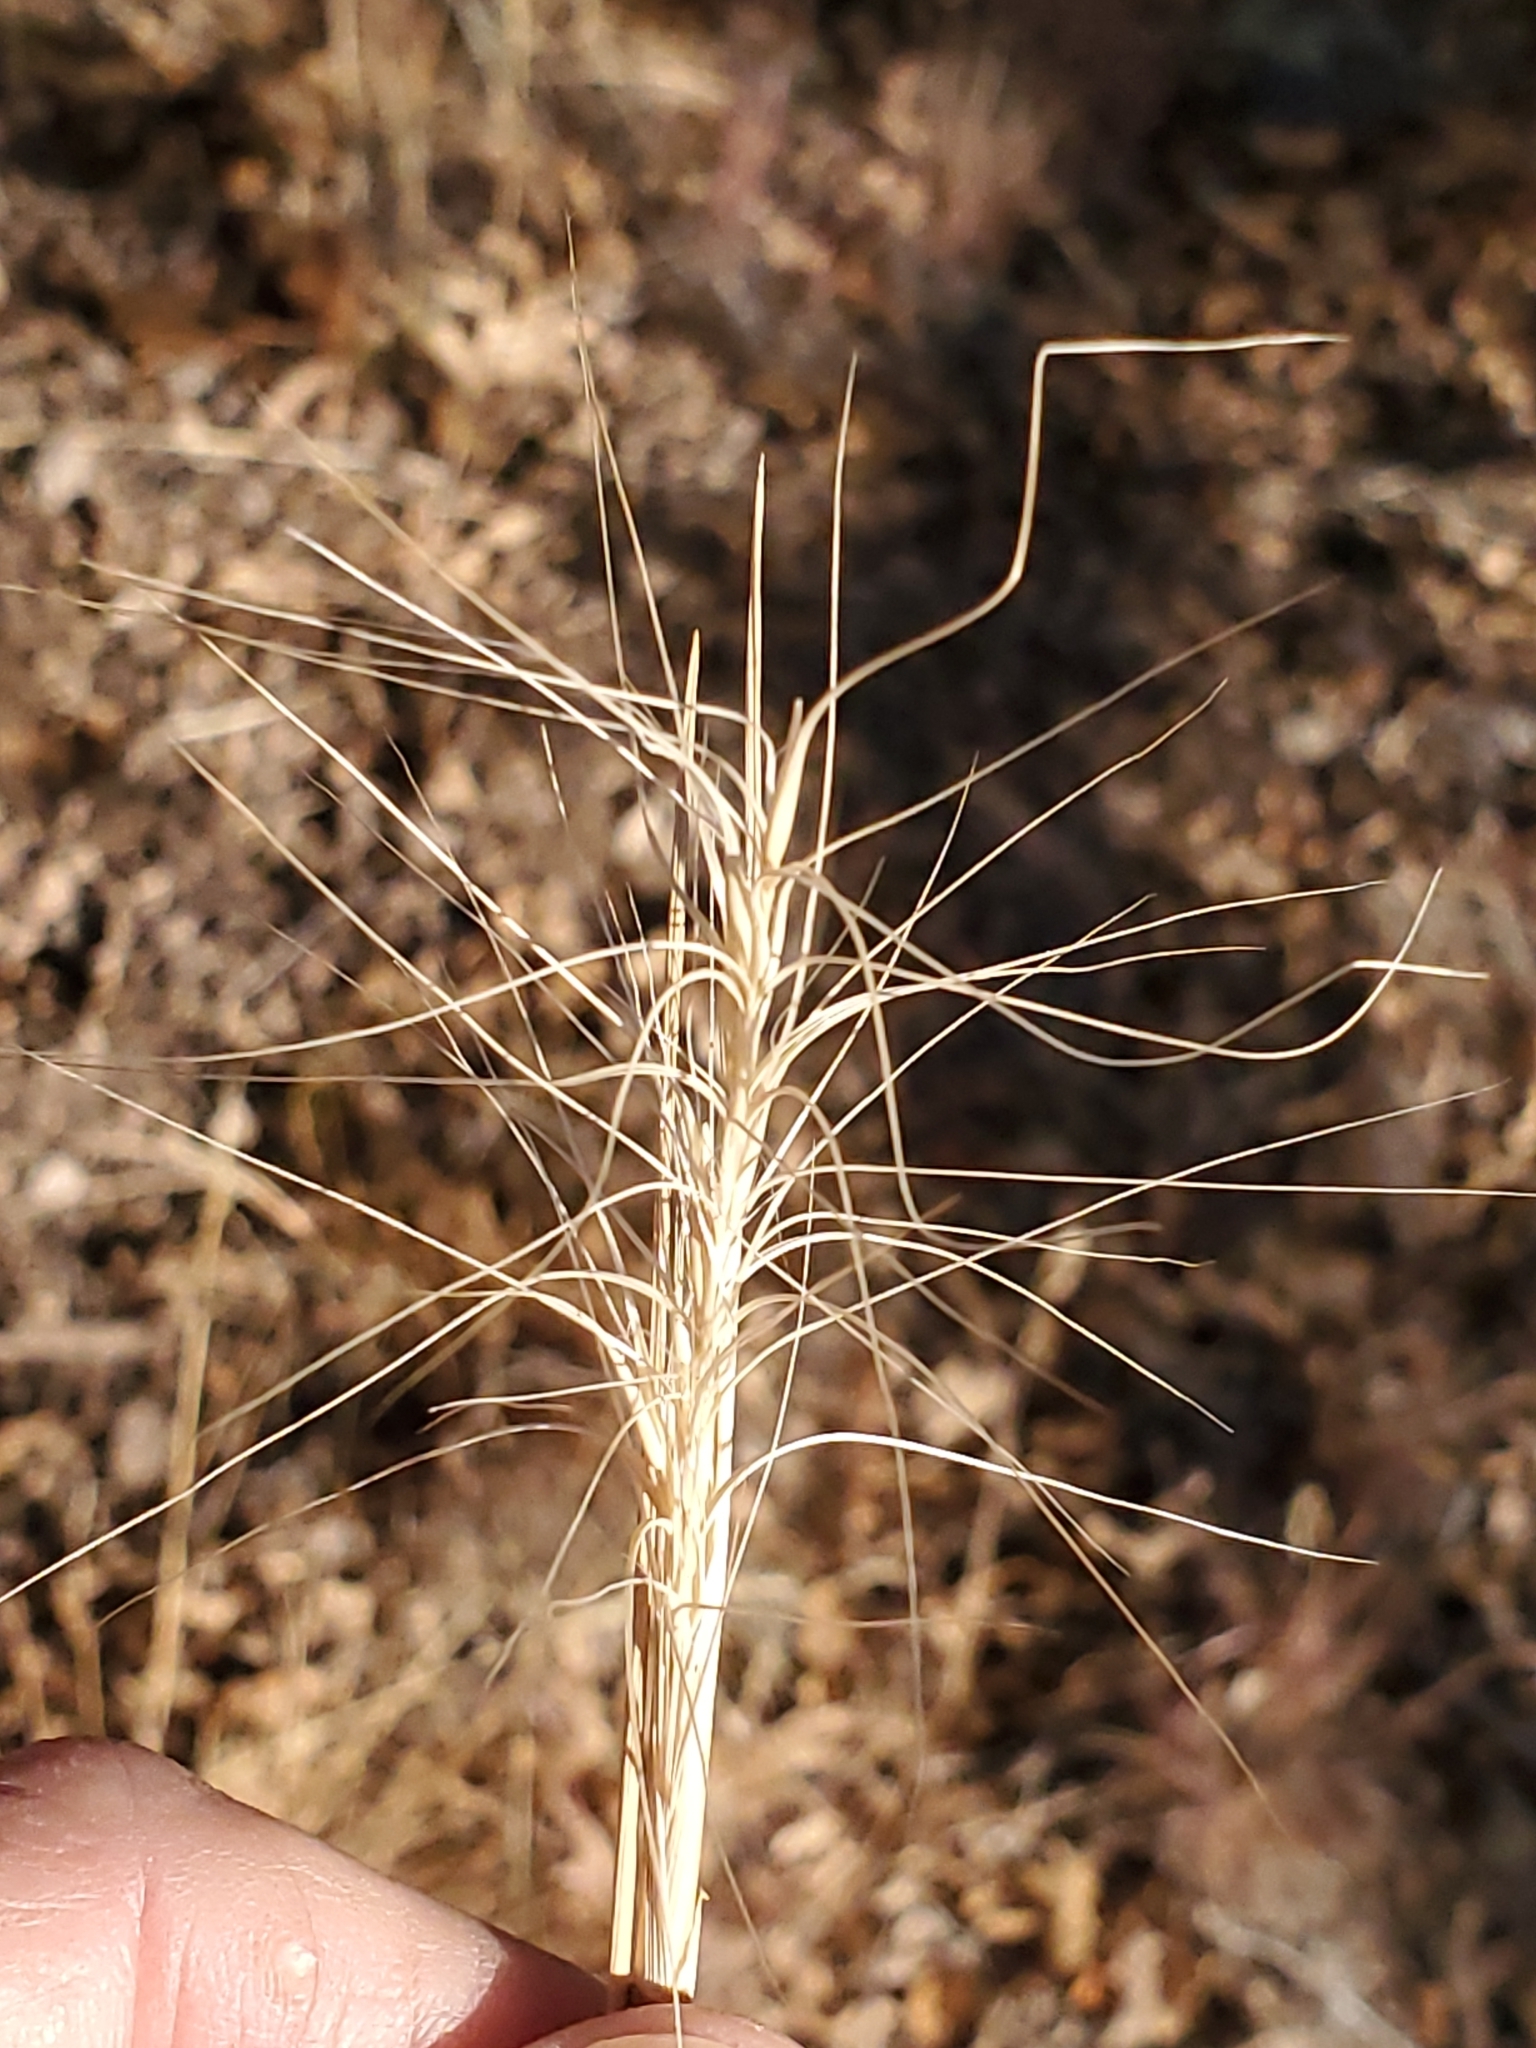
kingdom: Plantae
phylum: Tracheophyta
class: Liliopsida
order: Poales
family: Poaceae
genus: Elymus
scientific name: Elymus elymoides
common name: Bottlebrush squirreltail
